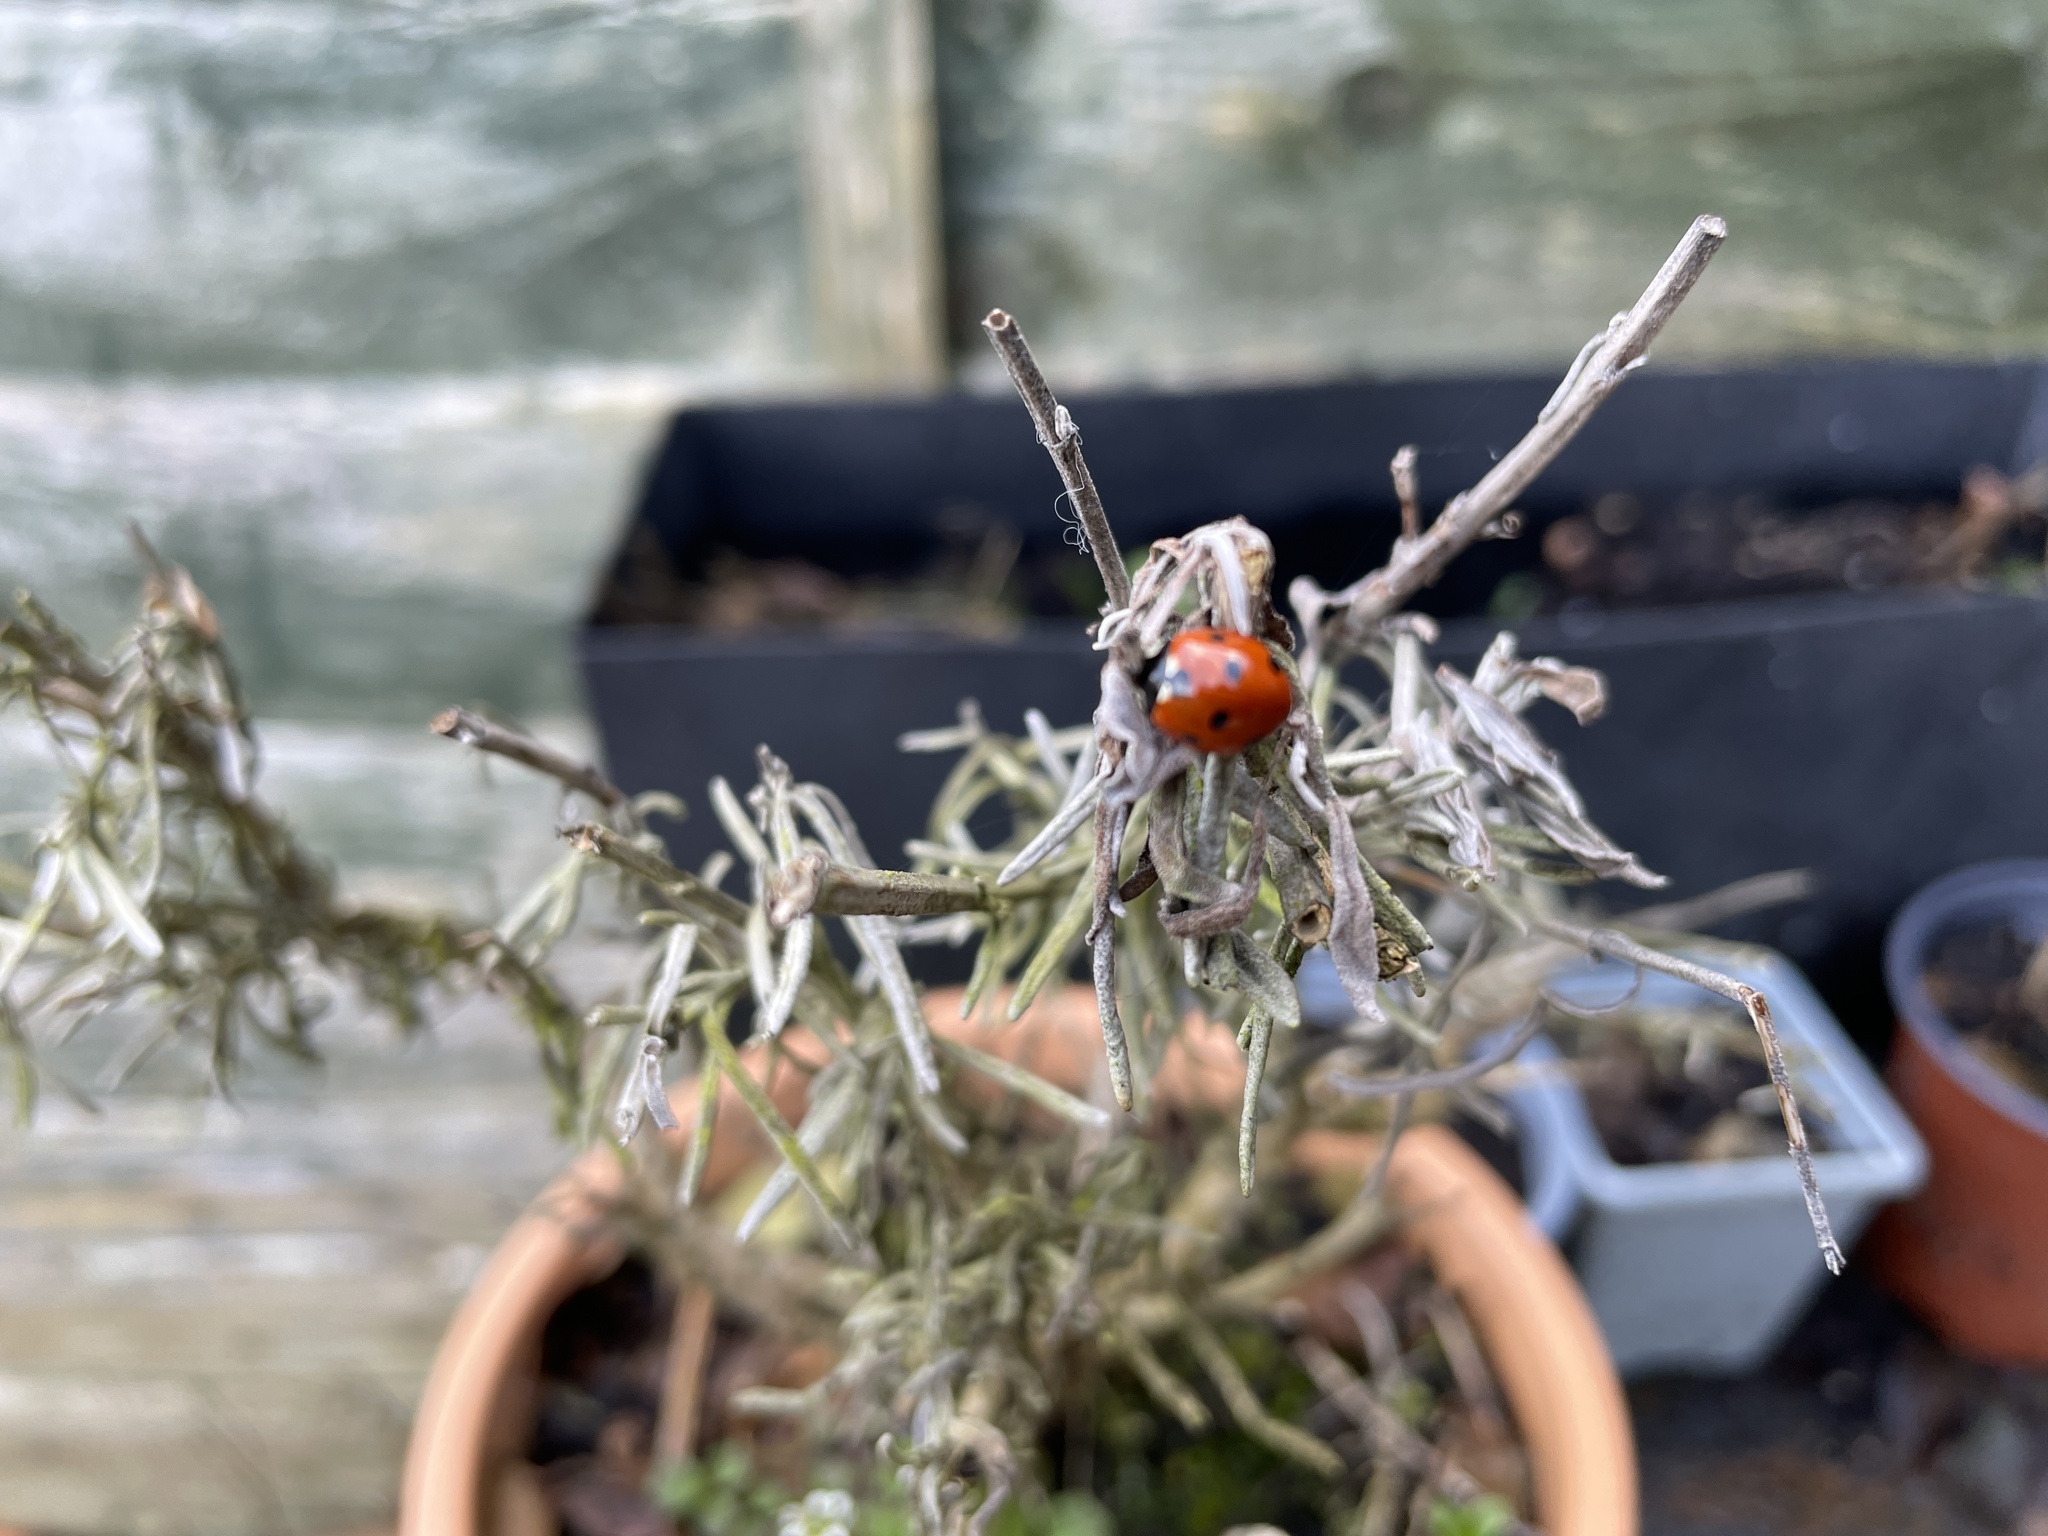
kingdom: Animalia
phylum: Arthropoda
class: Insecta
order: Coleoptera
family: Coccinellidae
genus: Coccinella
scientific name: Coccinella septempunctata
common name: Sevenspotted lady beetle
